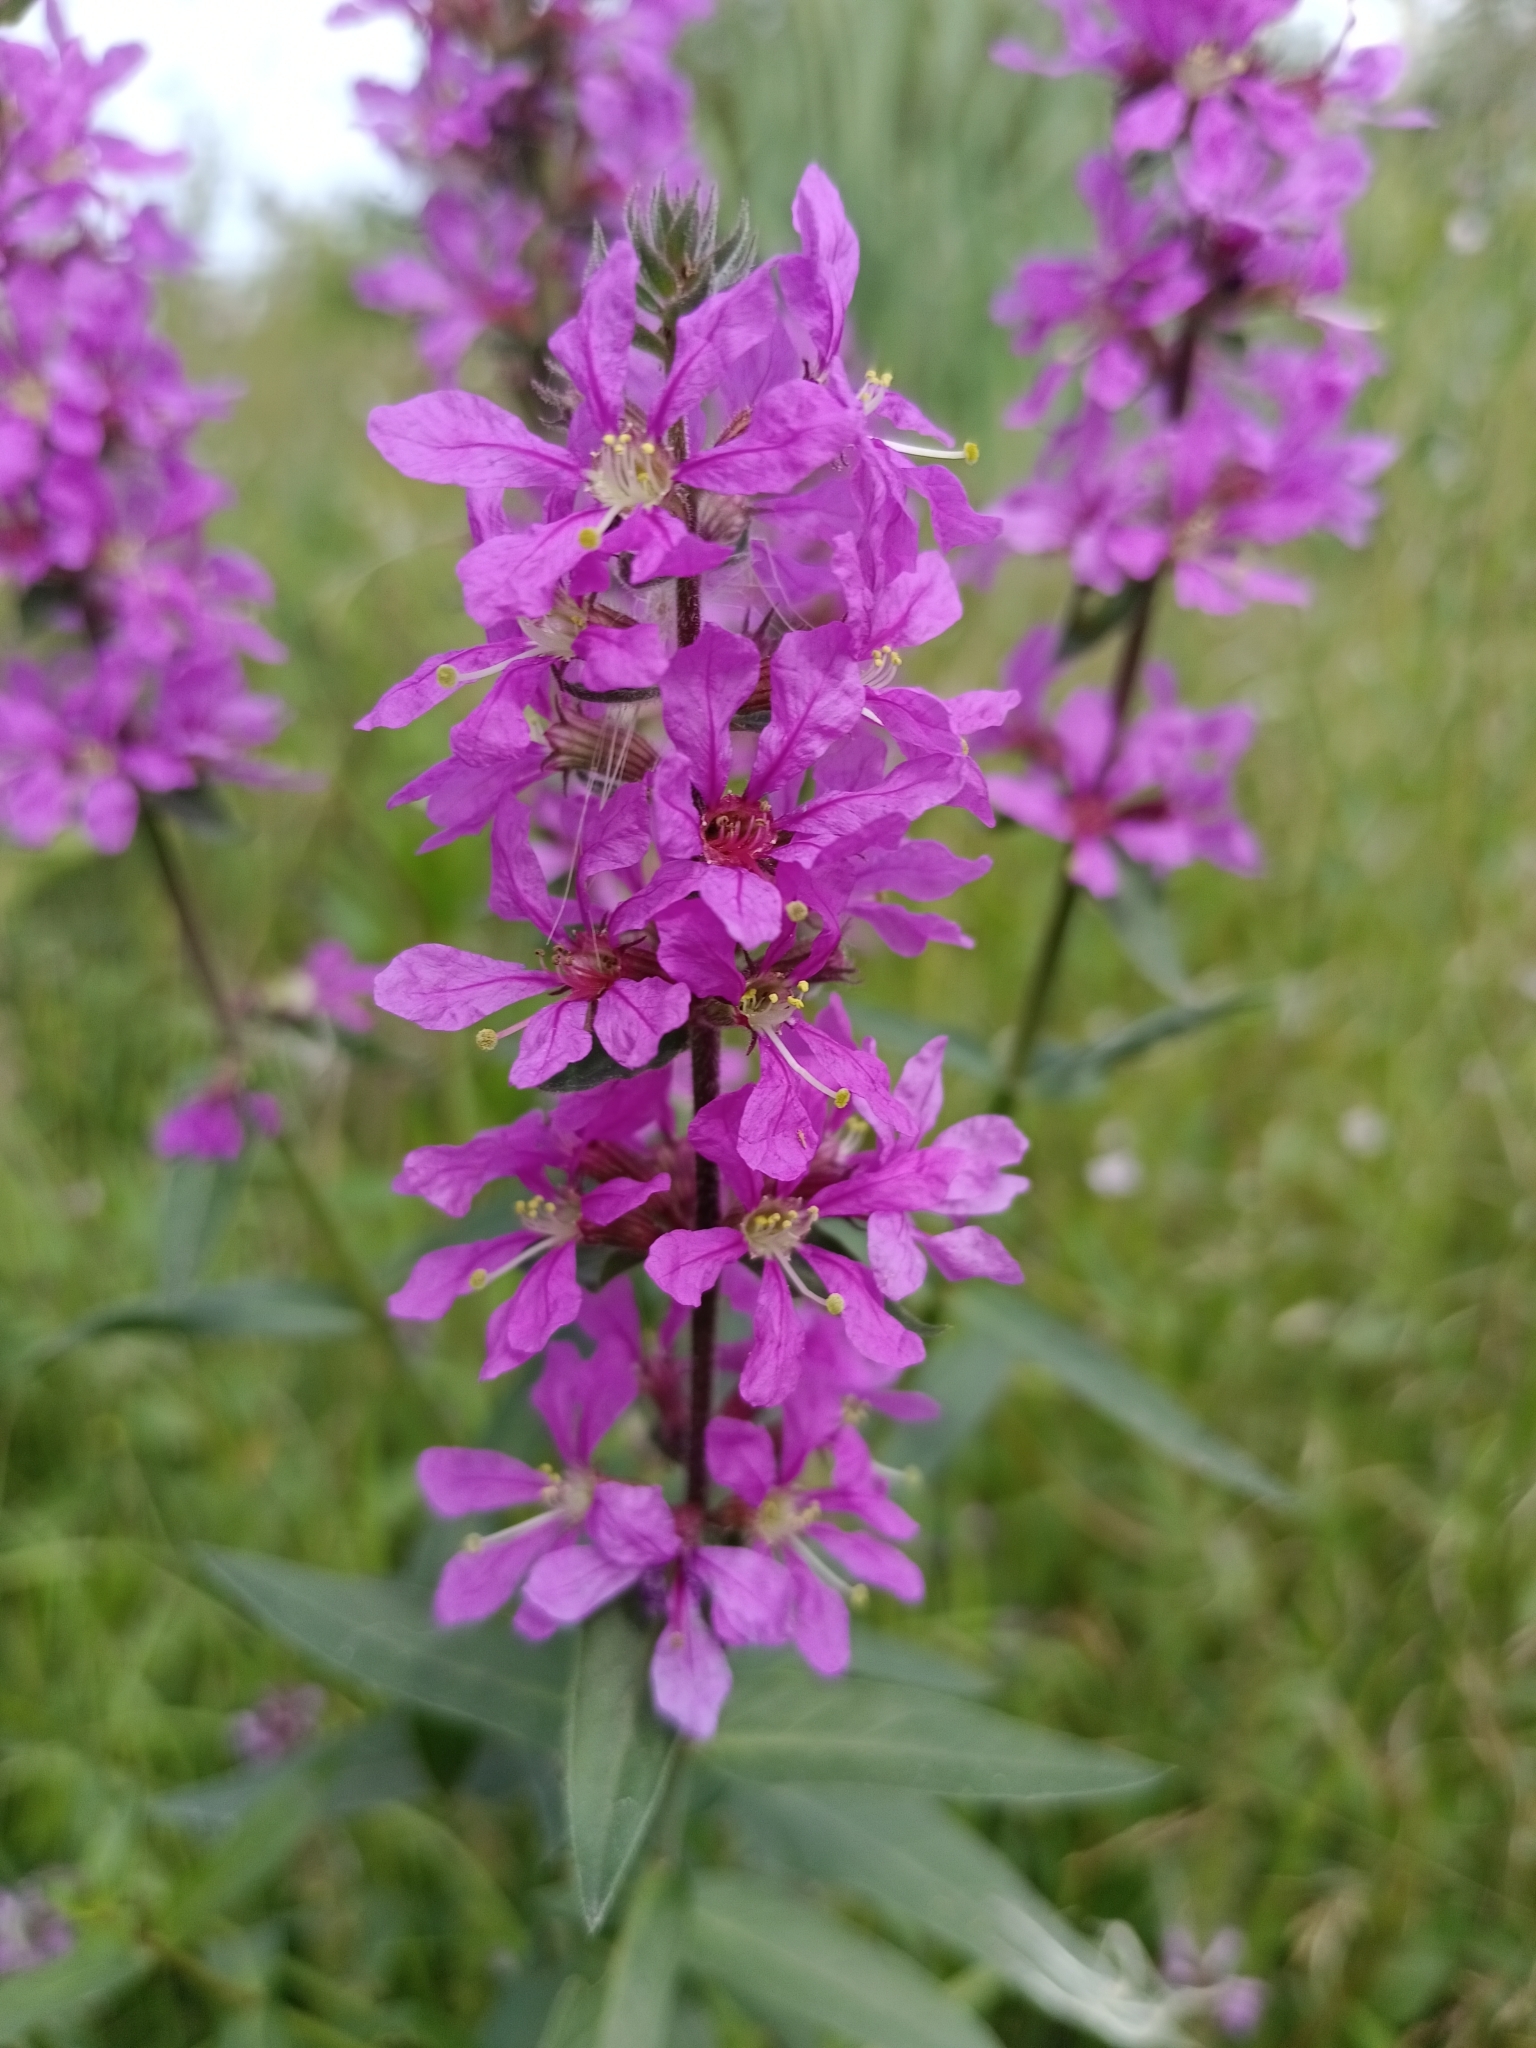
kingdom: Plantae
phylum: Tracheophyta
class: Magnoliopsida
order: Myrtales
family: Lythraceae
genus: Lythrum
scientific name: Lythrum salicaria
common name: Purple loosestrife
